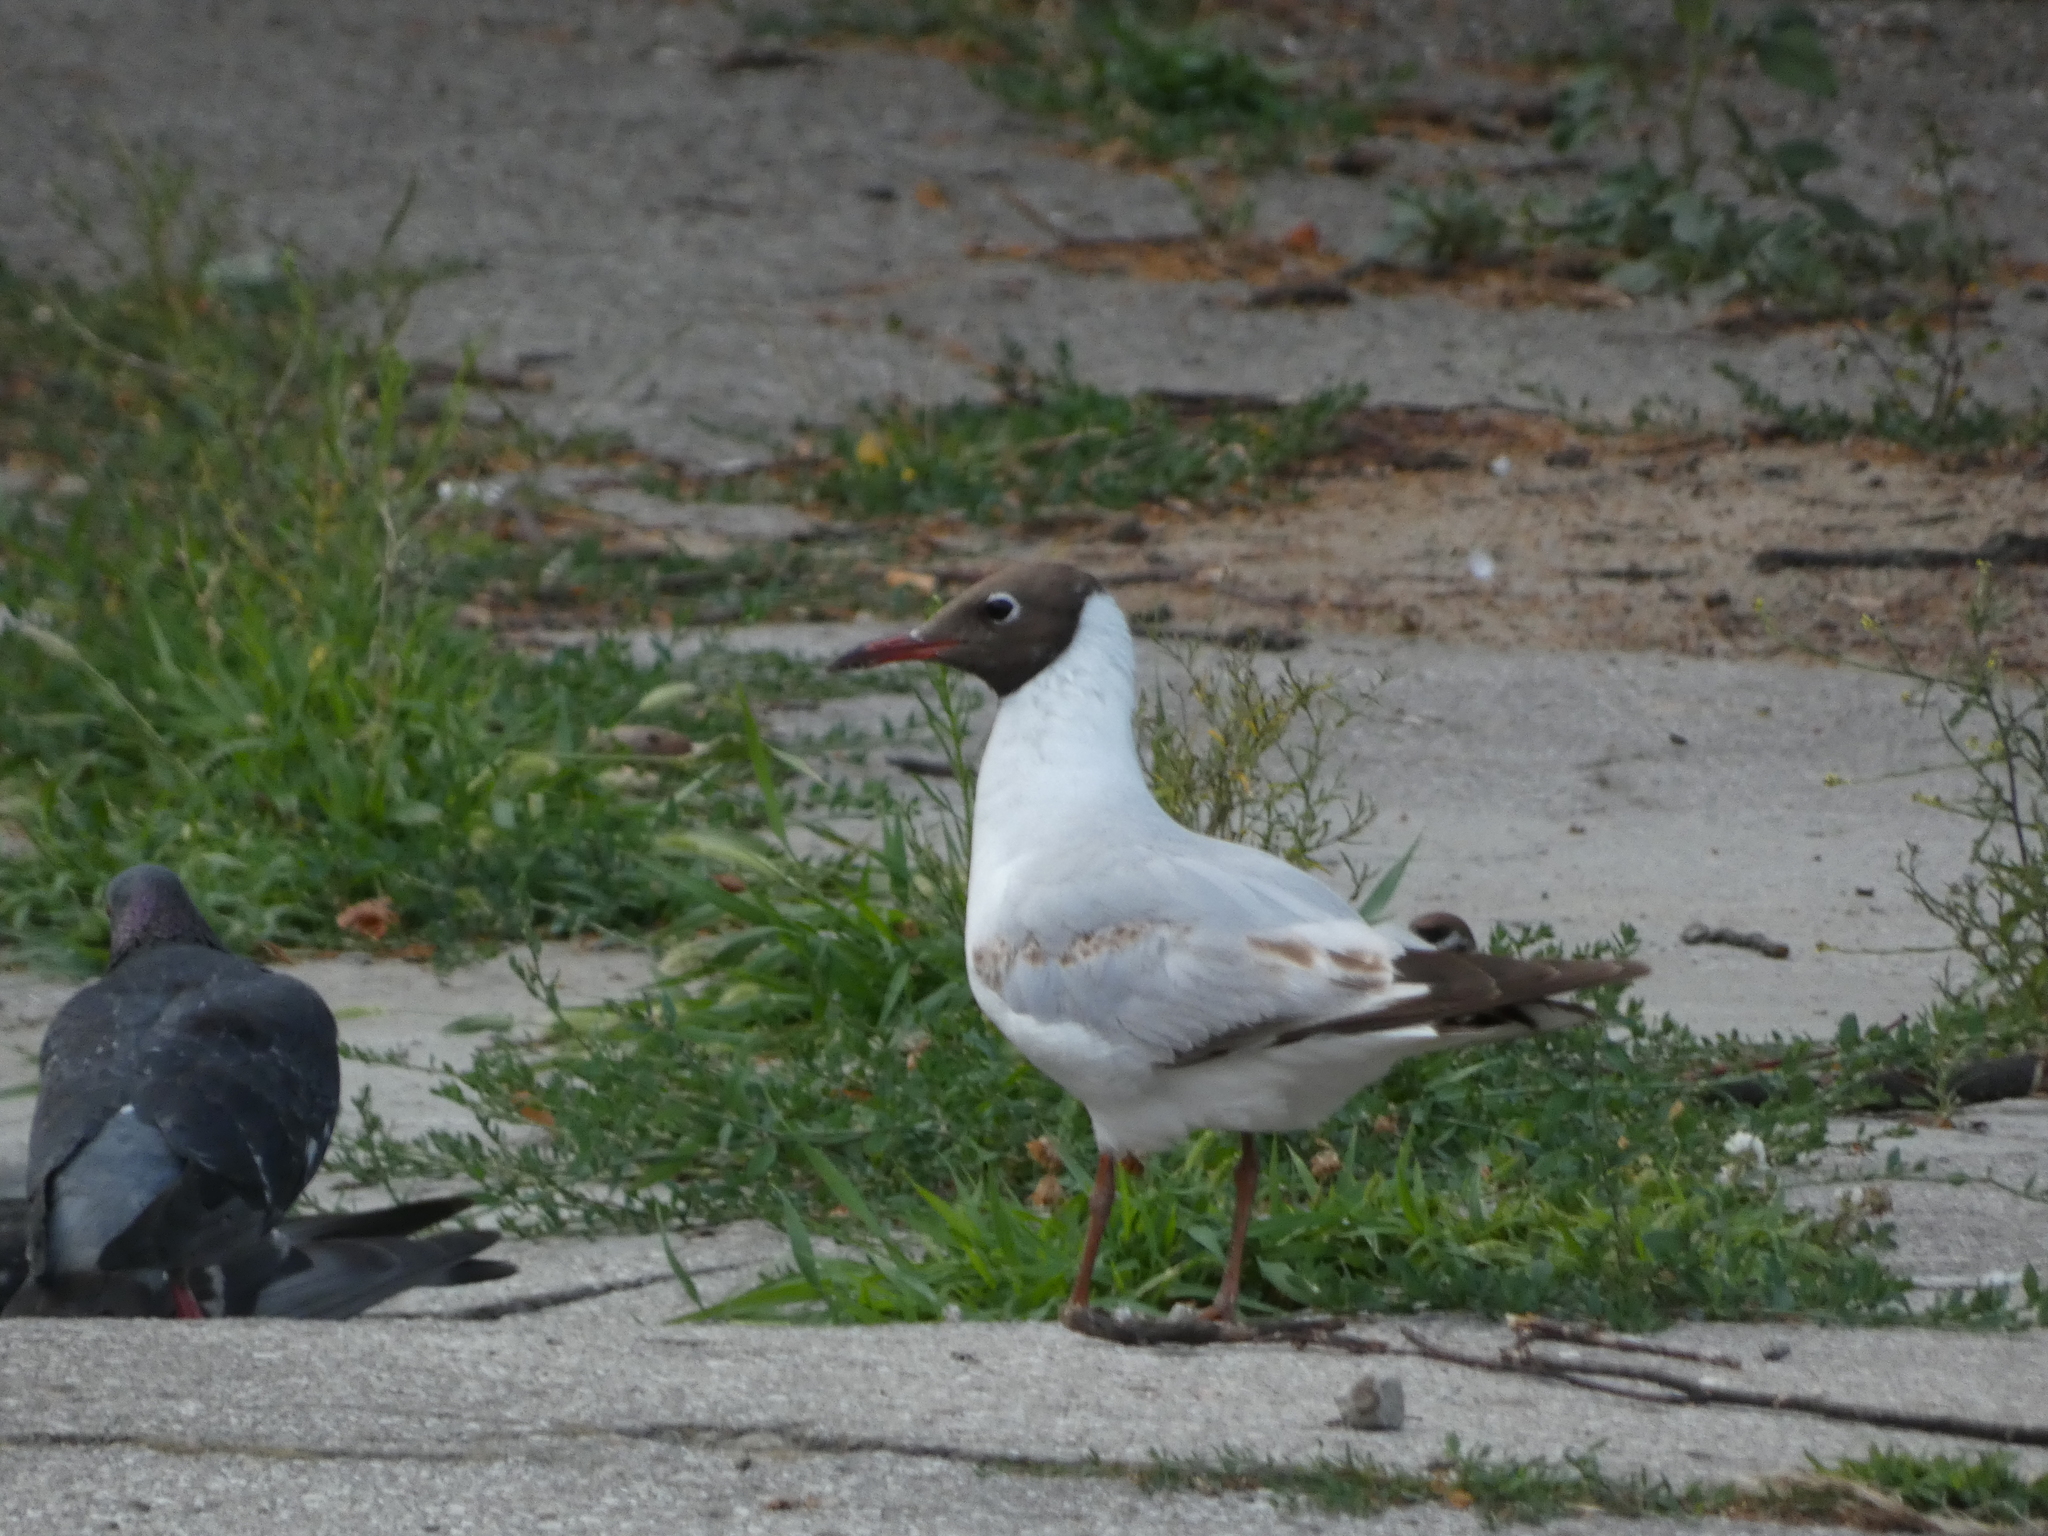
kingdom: Animalia
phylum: Chordata
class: Aves
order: Charadriiformes
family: Laridae
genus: Chroicocephalus
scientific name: Chroicocephalus ridibundus
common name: Black-headed gull
